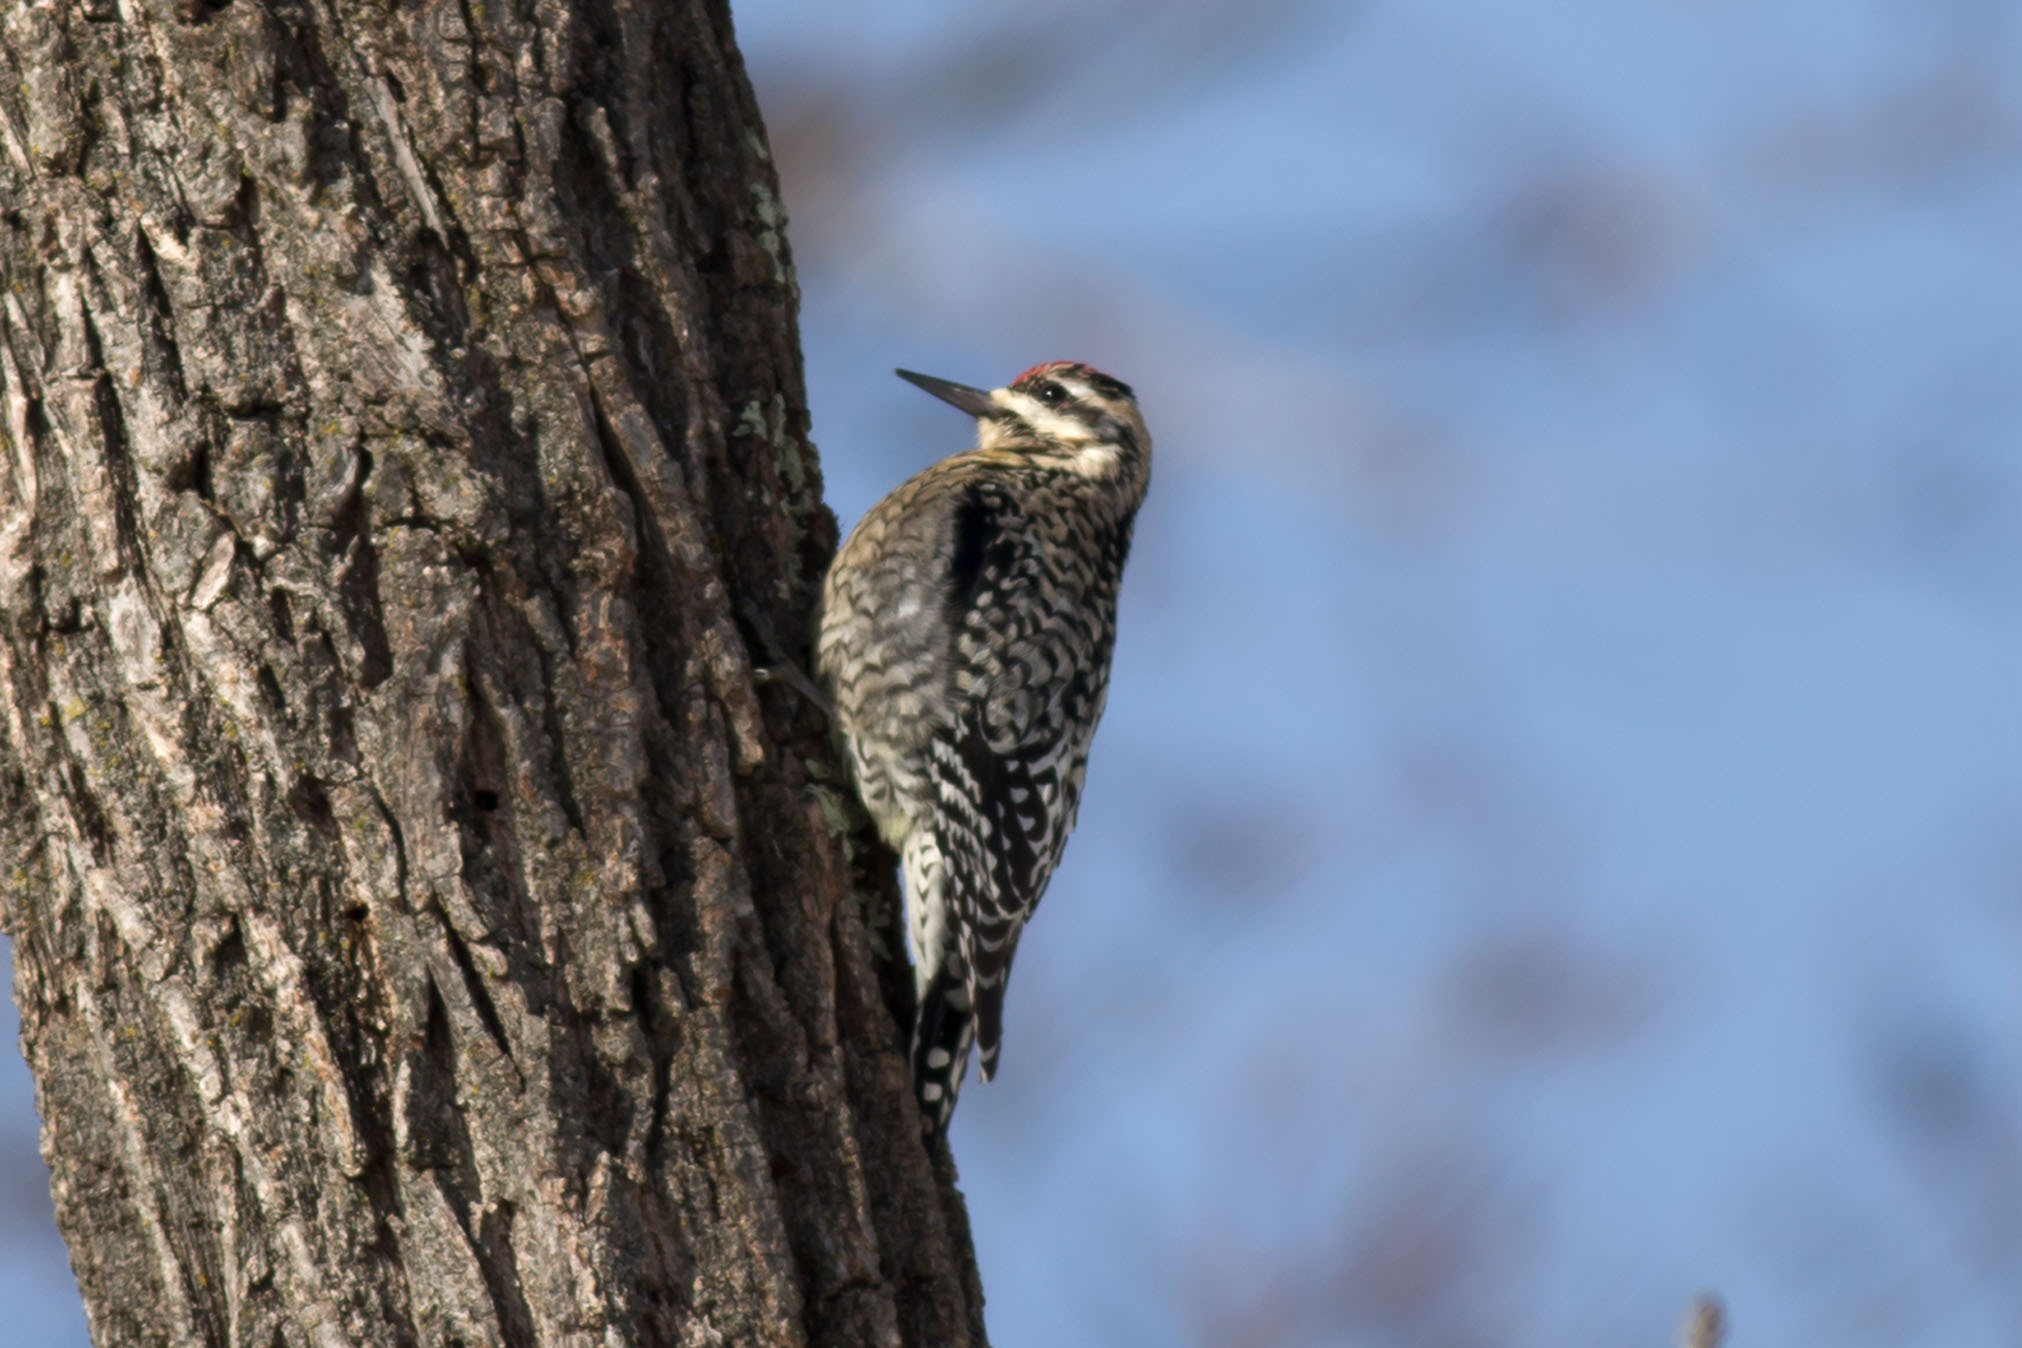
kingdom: Animalia
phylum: Chordata
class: Aves
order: Piciformes
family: Picidae
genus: Sphyrapicus
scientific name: Sphyrapicus varius
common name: Yellow-bellied sapsucker
